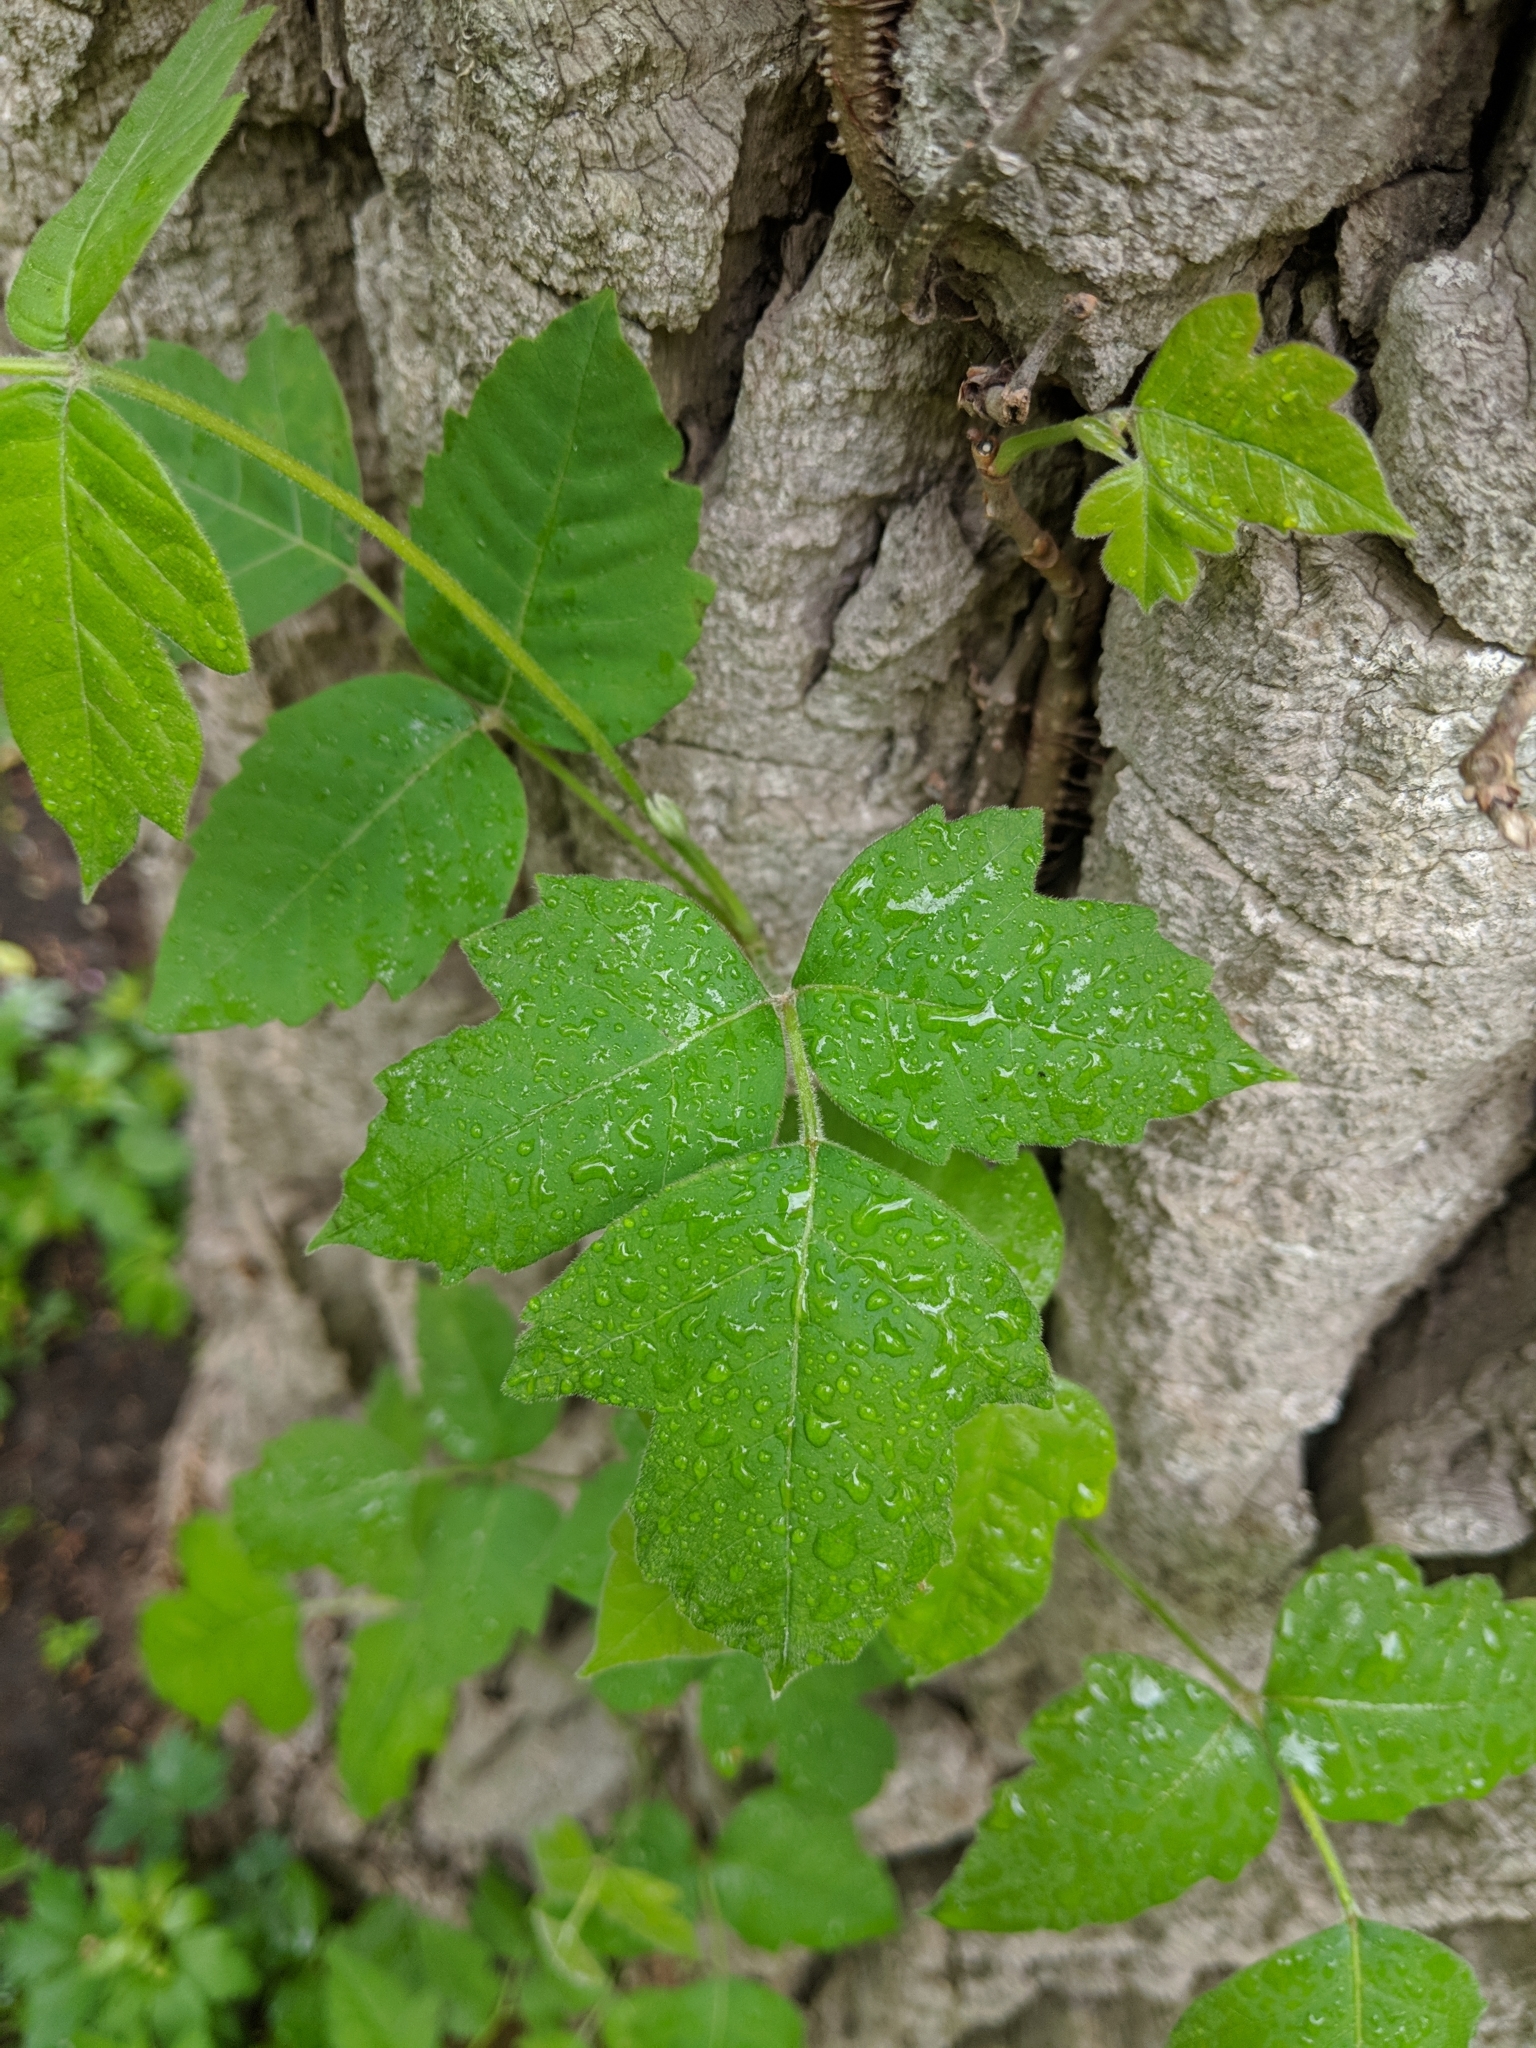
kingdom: Plantae
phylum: Tracheophyta
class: Magnoliopsida
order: Sapindales
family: Anacardiaceae
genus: Toxicodendron
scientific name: Toxicodendron radicans
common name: Poison ivy
